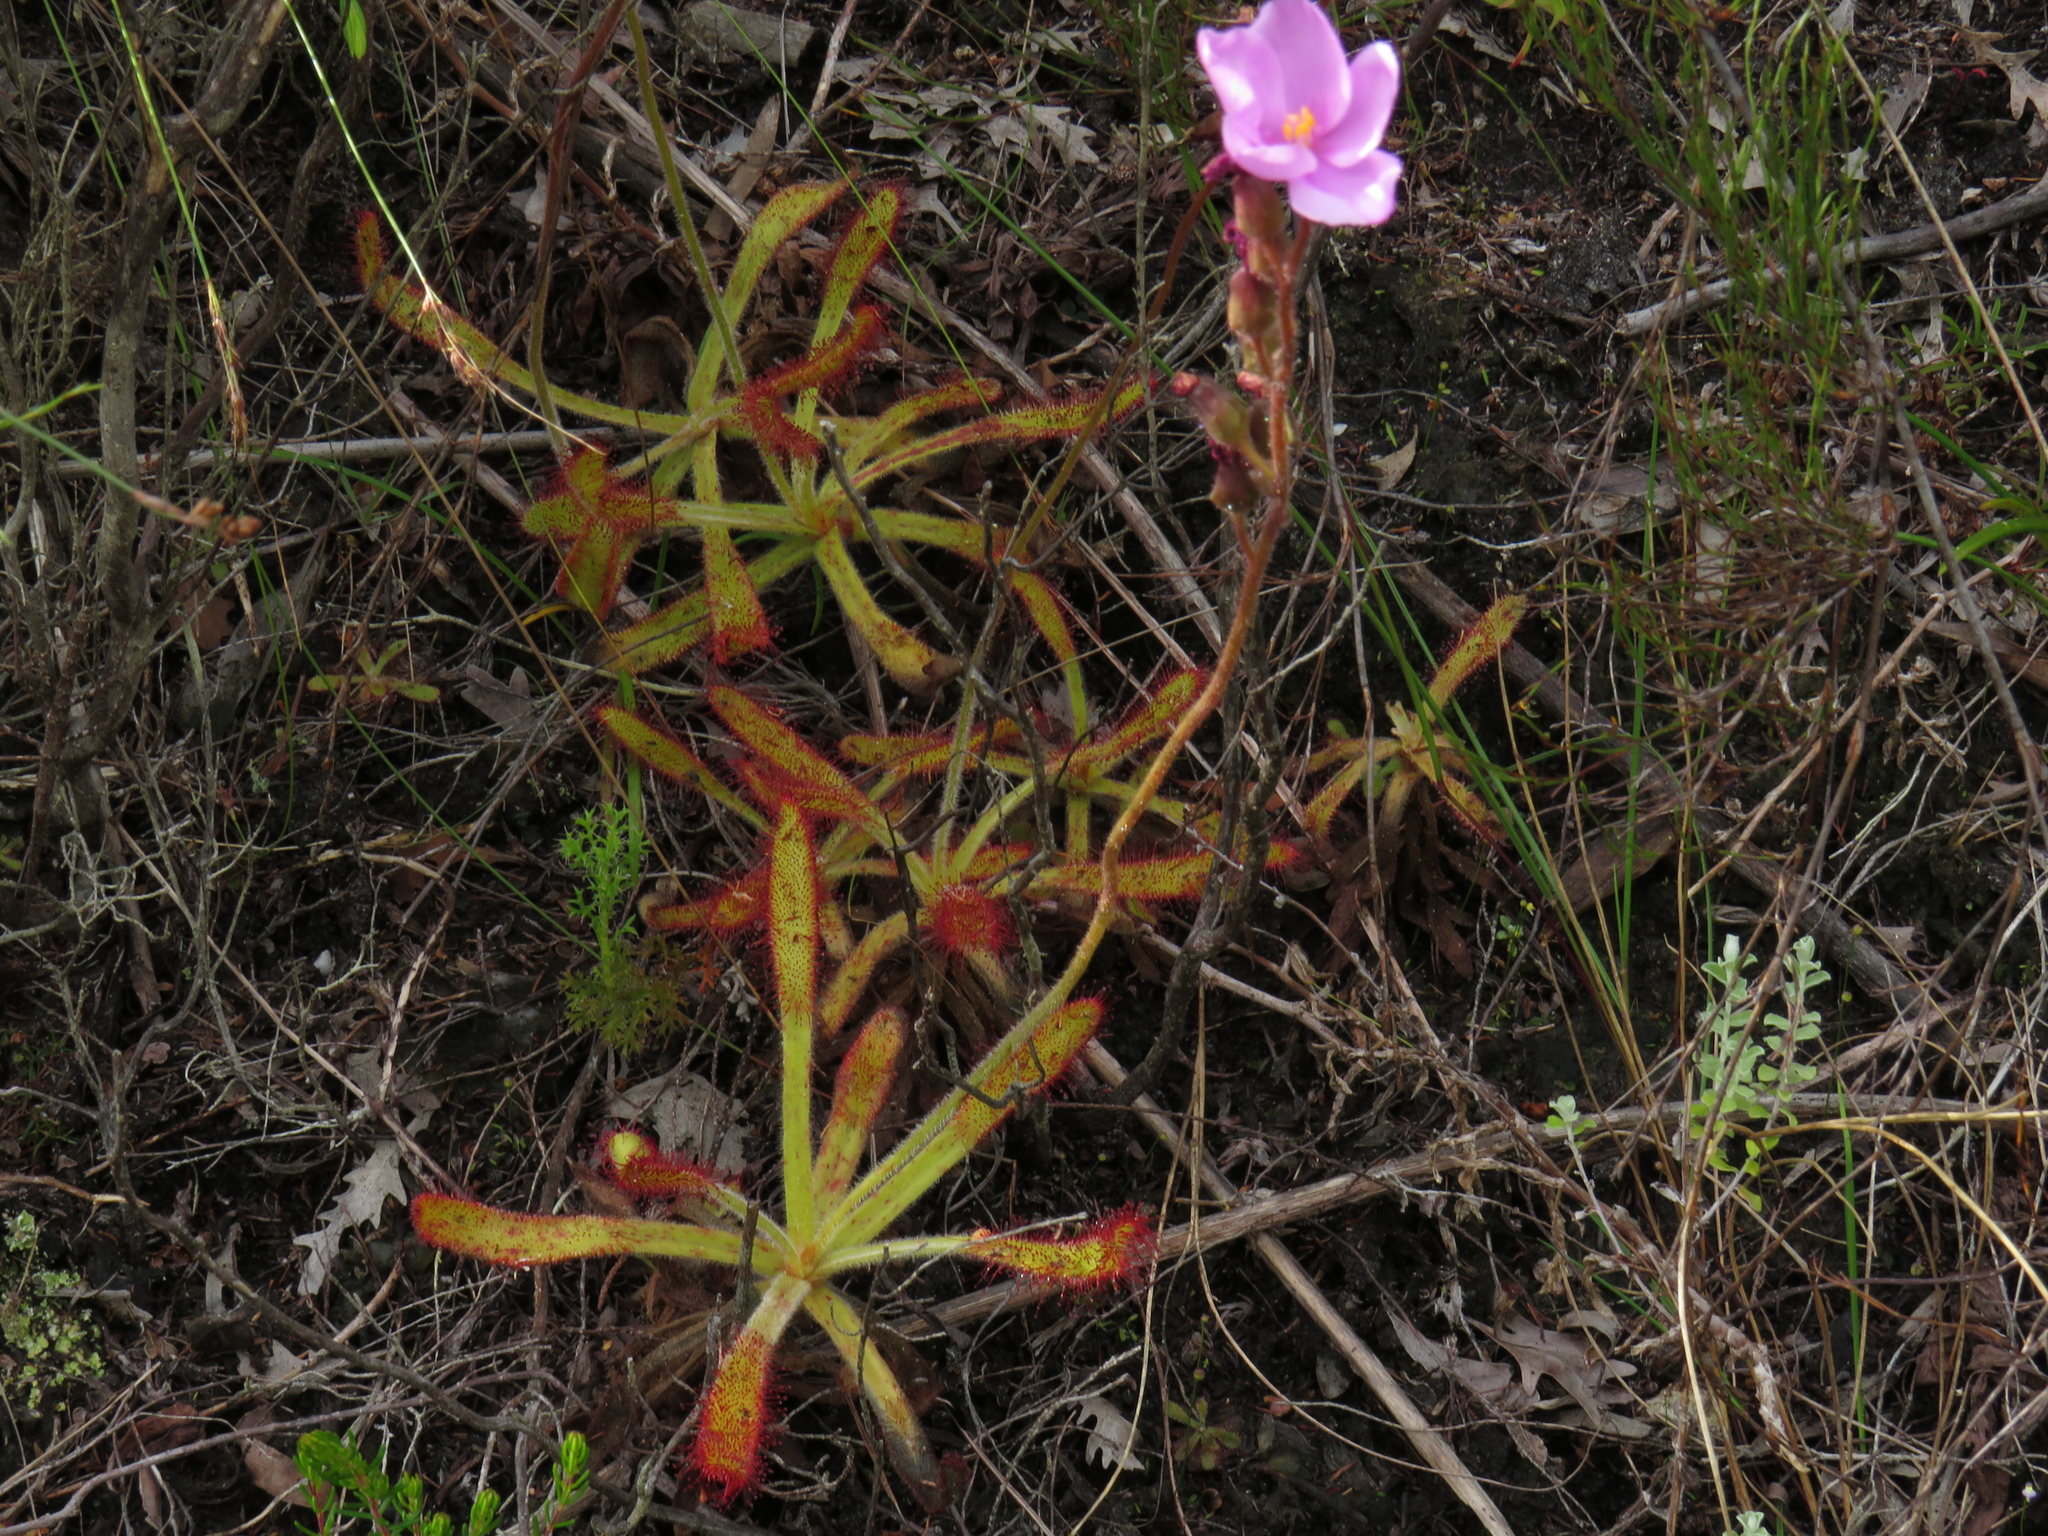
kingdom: Plantae
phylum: Tracheophyta
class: Magnoliopsida
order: Caryophyllales
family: Droseraceae
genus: Drosera
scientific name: Drosera hilaris
